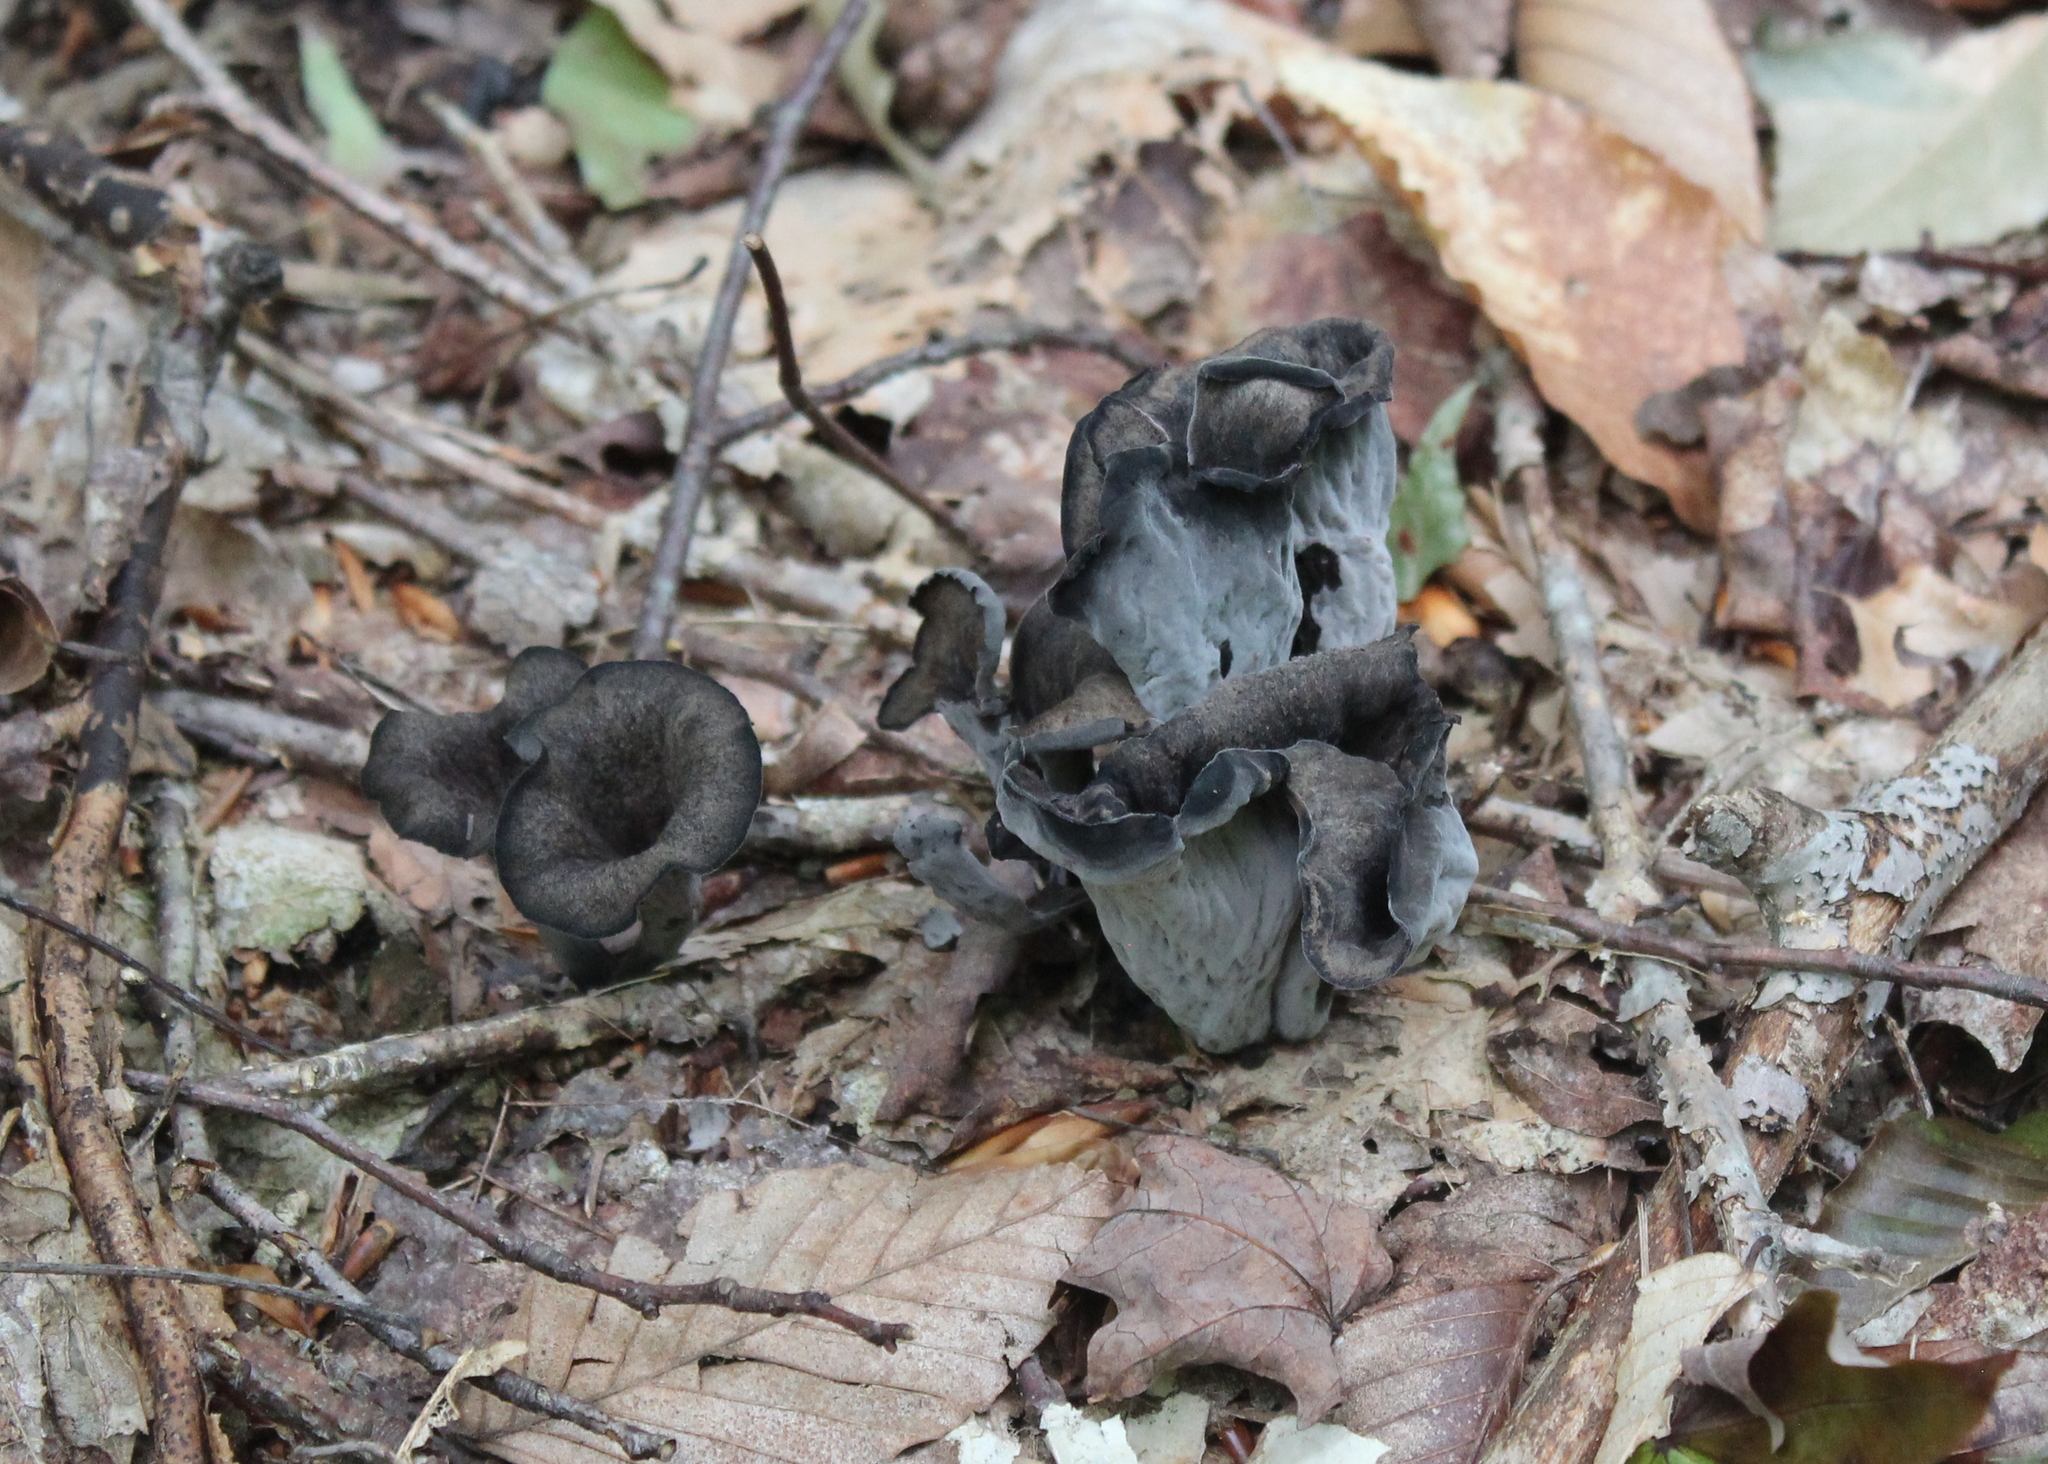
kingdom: Fungi
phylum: Basidiomycota
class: Agaricomycetes
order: Cantharellales
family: Hydnaceae
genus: Craterellus
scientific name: Craterellus cornucopioides
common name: Horn of plenty
